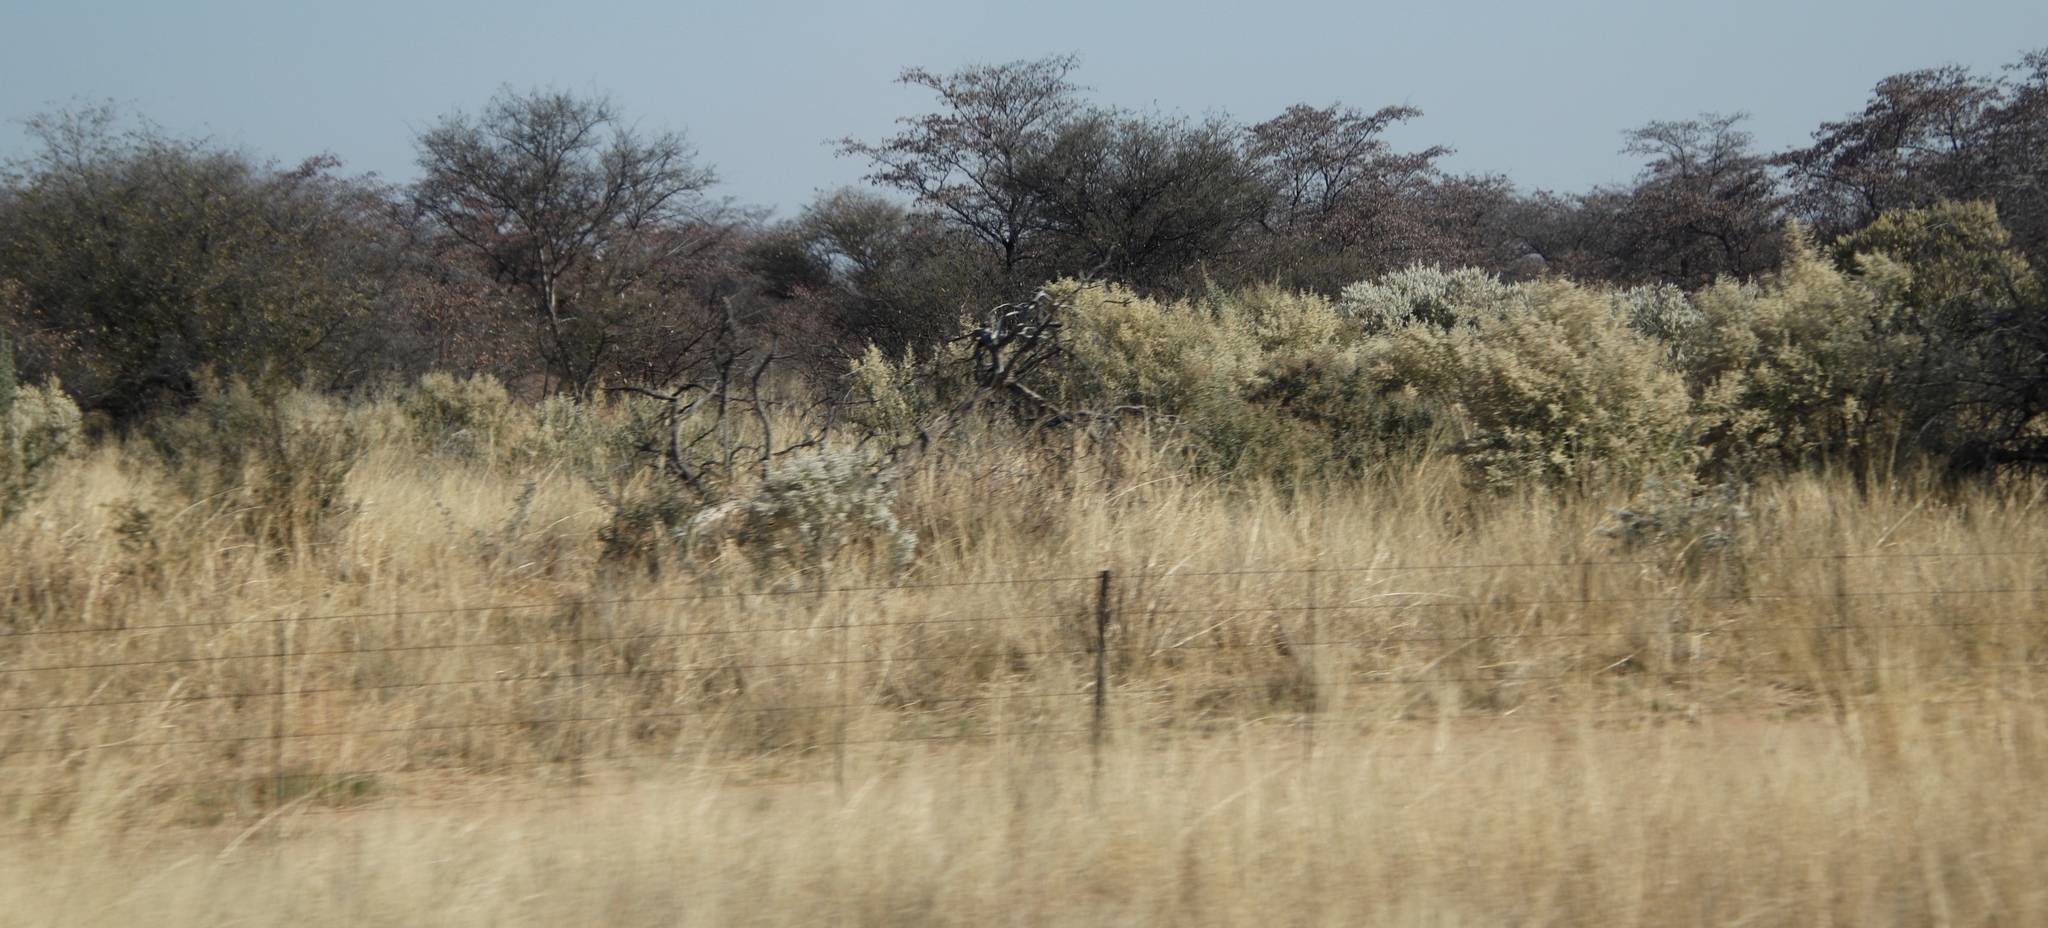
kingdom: Plantae
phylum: Tracheophyta
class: Magnoliopsida
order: Asterales
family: Asteraceae
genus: Tarchonanthus
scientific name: Tarchonanthus camphoratus
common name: Camphorwood
